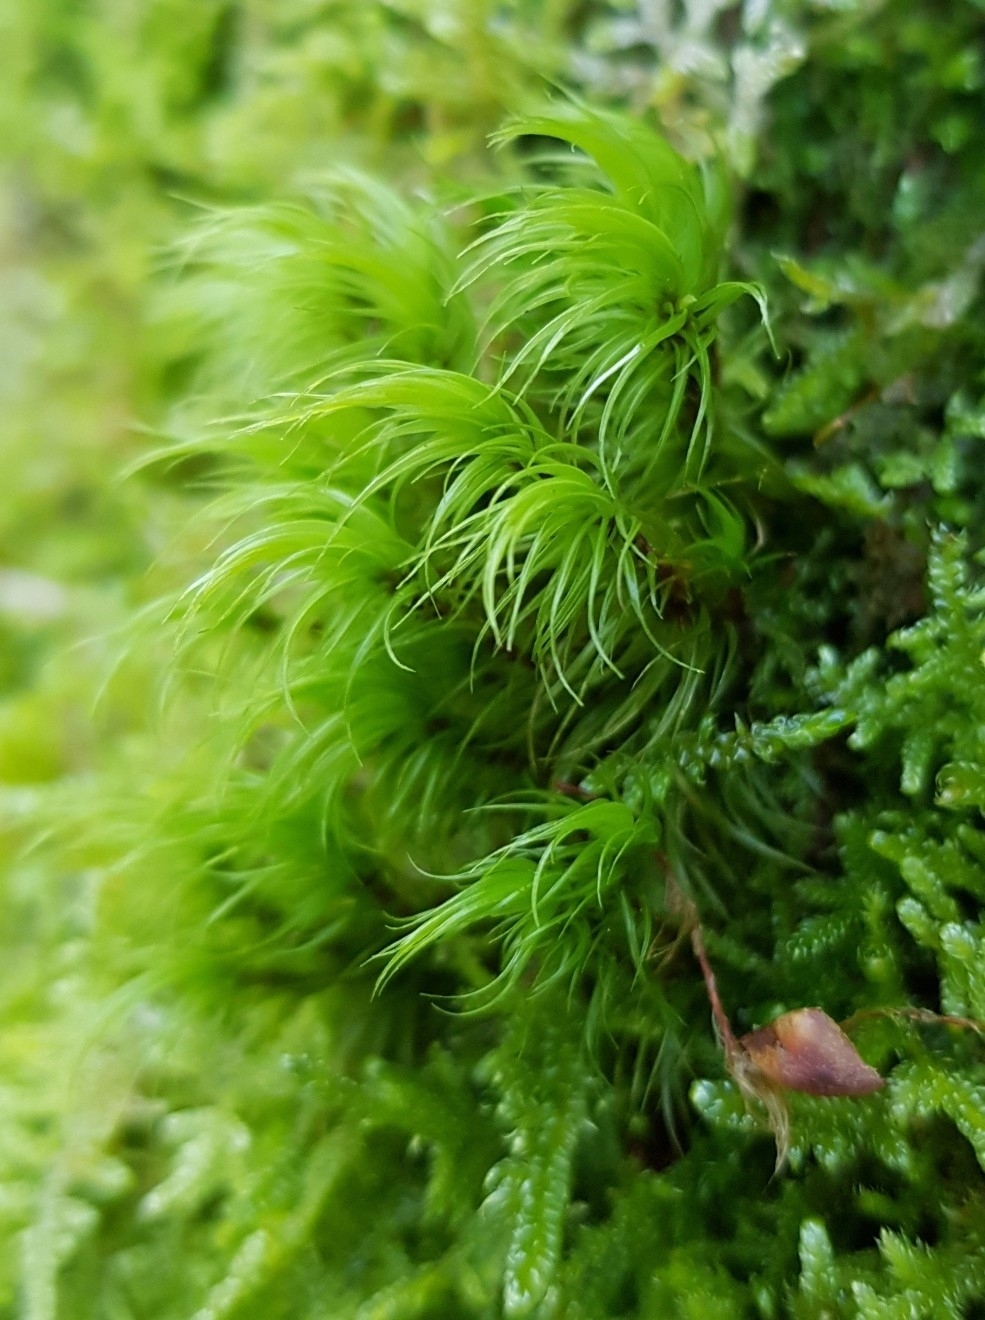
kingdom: Plantae
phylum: Bryophyta
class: Bryopsida
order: Dicranales
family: Dicranaceae
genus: Dicranum
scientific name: Dicranum majus
